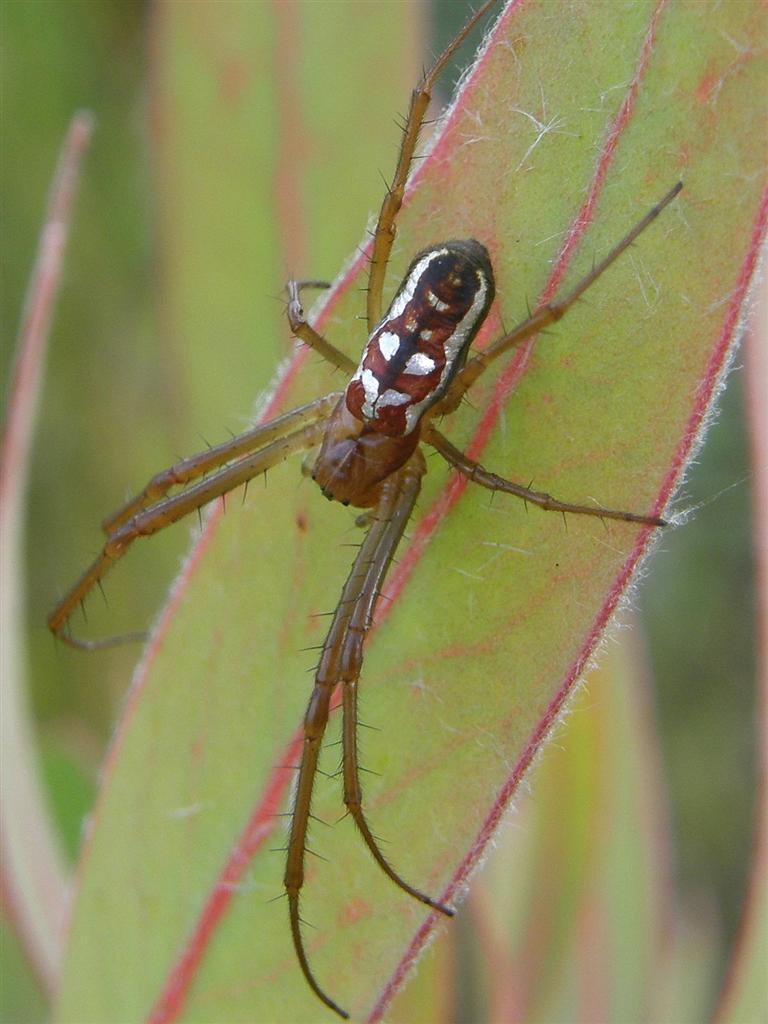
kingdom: Animalia
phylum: Arthropoda
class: Arachnida
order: Araneae
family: Tetragnathidae
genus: Leucauge
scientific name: Leucauge festiva
